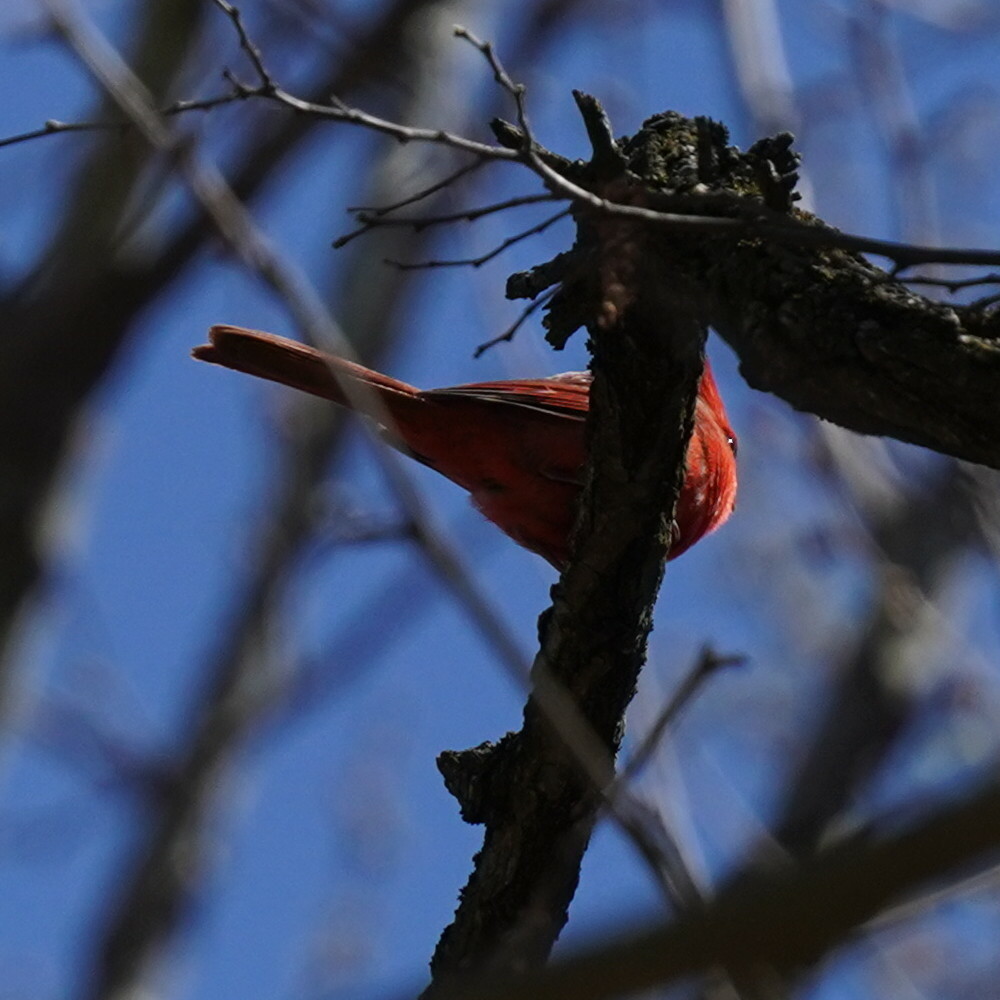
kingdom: Animalia
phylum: Chordata
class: Aves
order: Passeriformes
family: Cardinalidae
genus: Cardinalis
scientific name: Cardinalis cardinalis
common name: Northern cardinal
